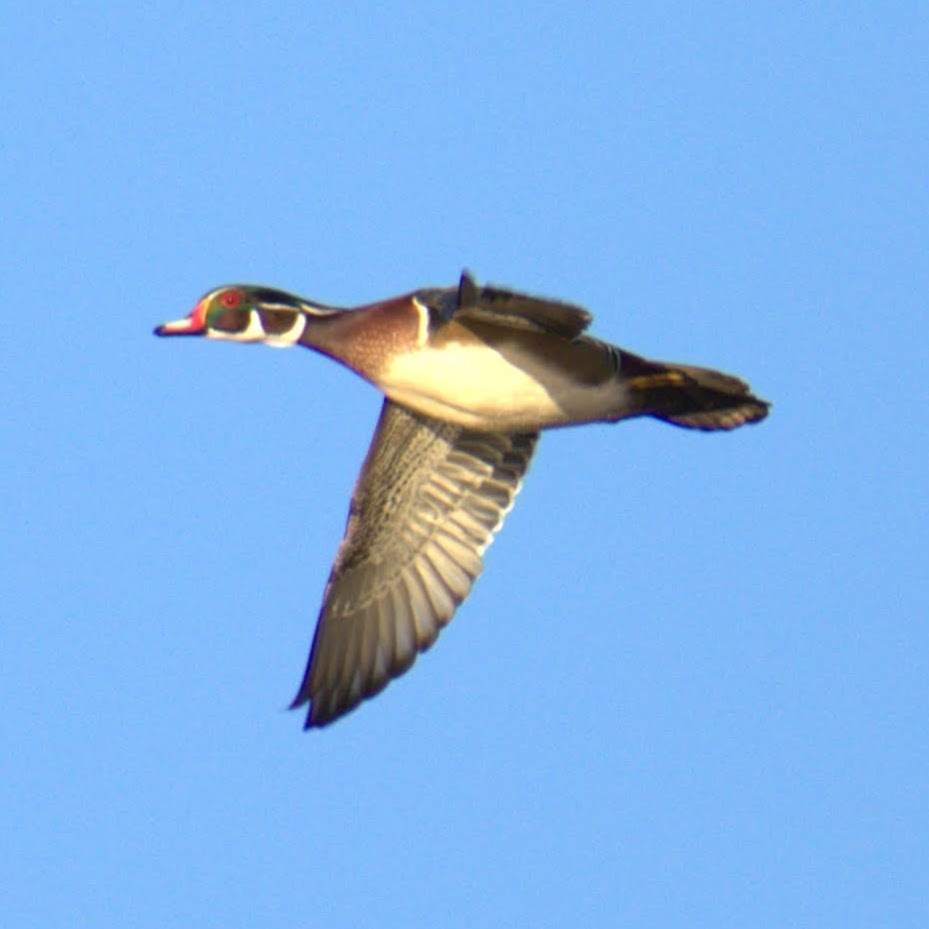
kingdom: Animalia
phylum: Chordata
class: Aves
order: Anseriformes
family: Anatidae
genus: Aix
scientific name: Aix sponsa
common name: Wood duck
